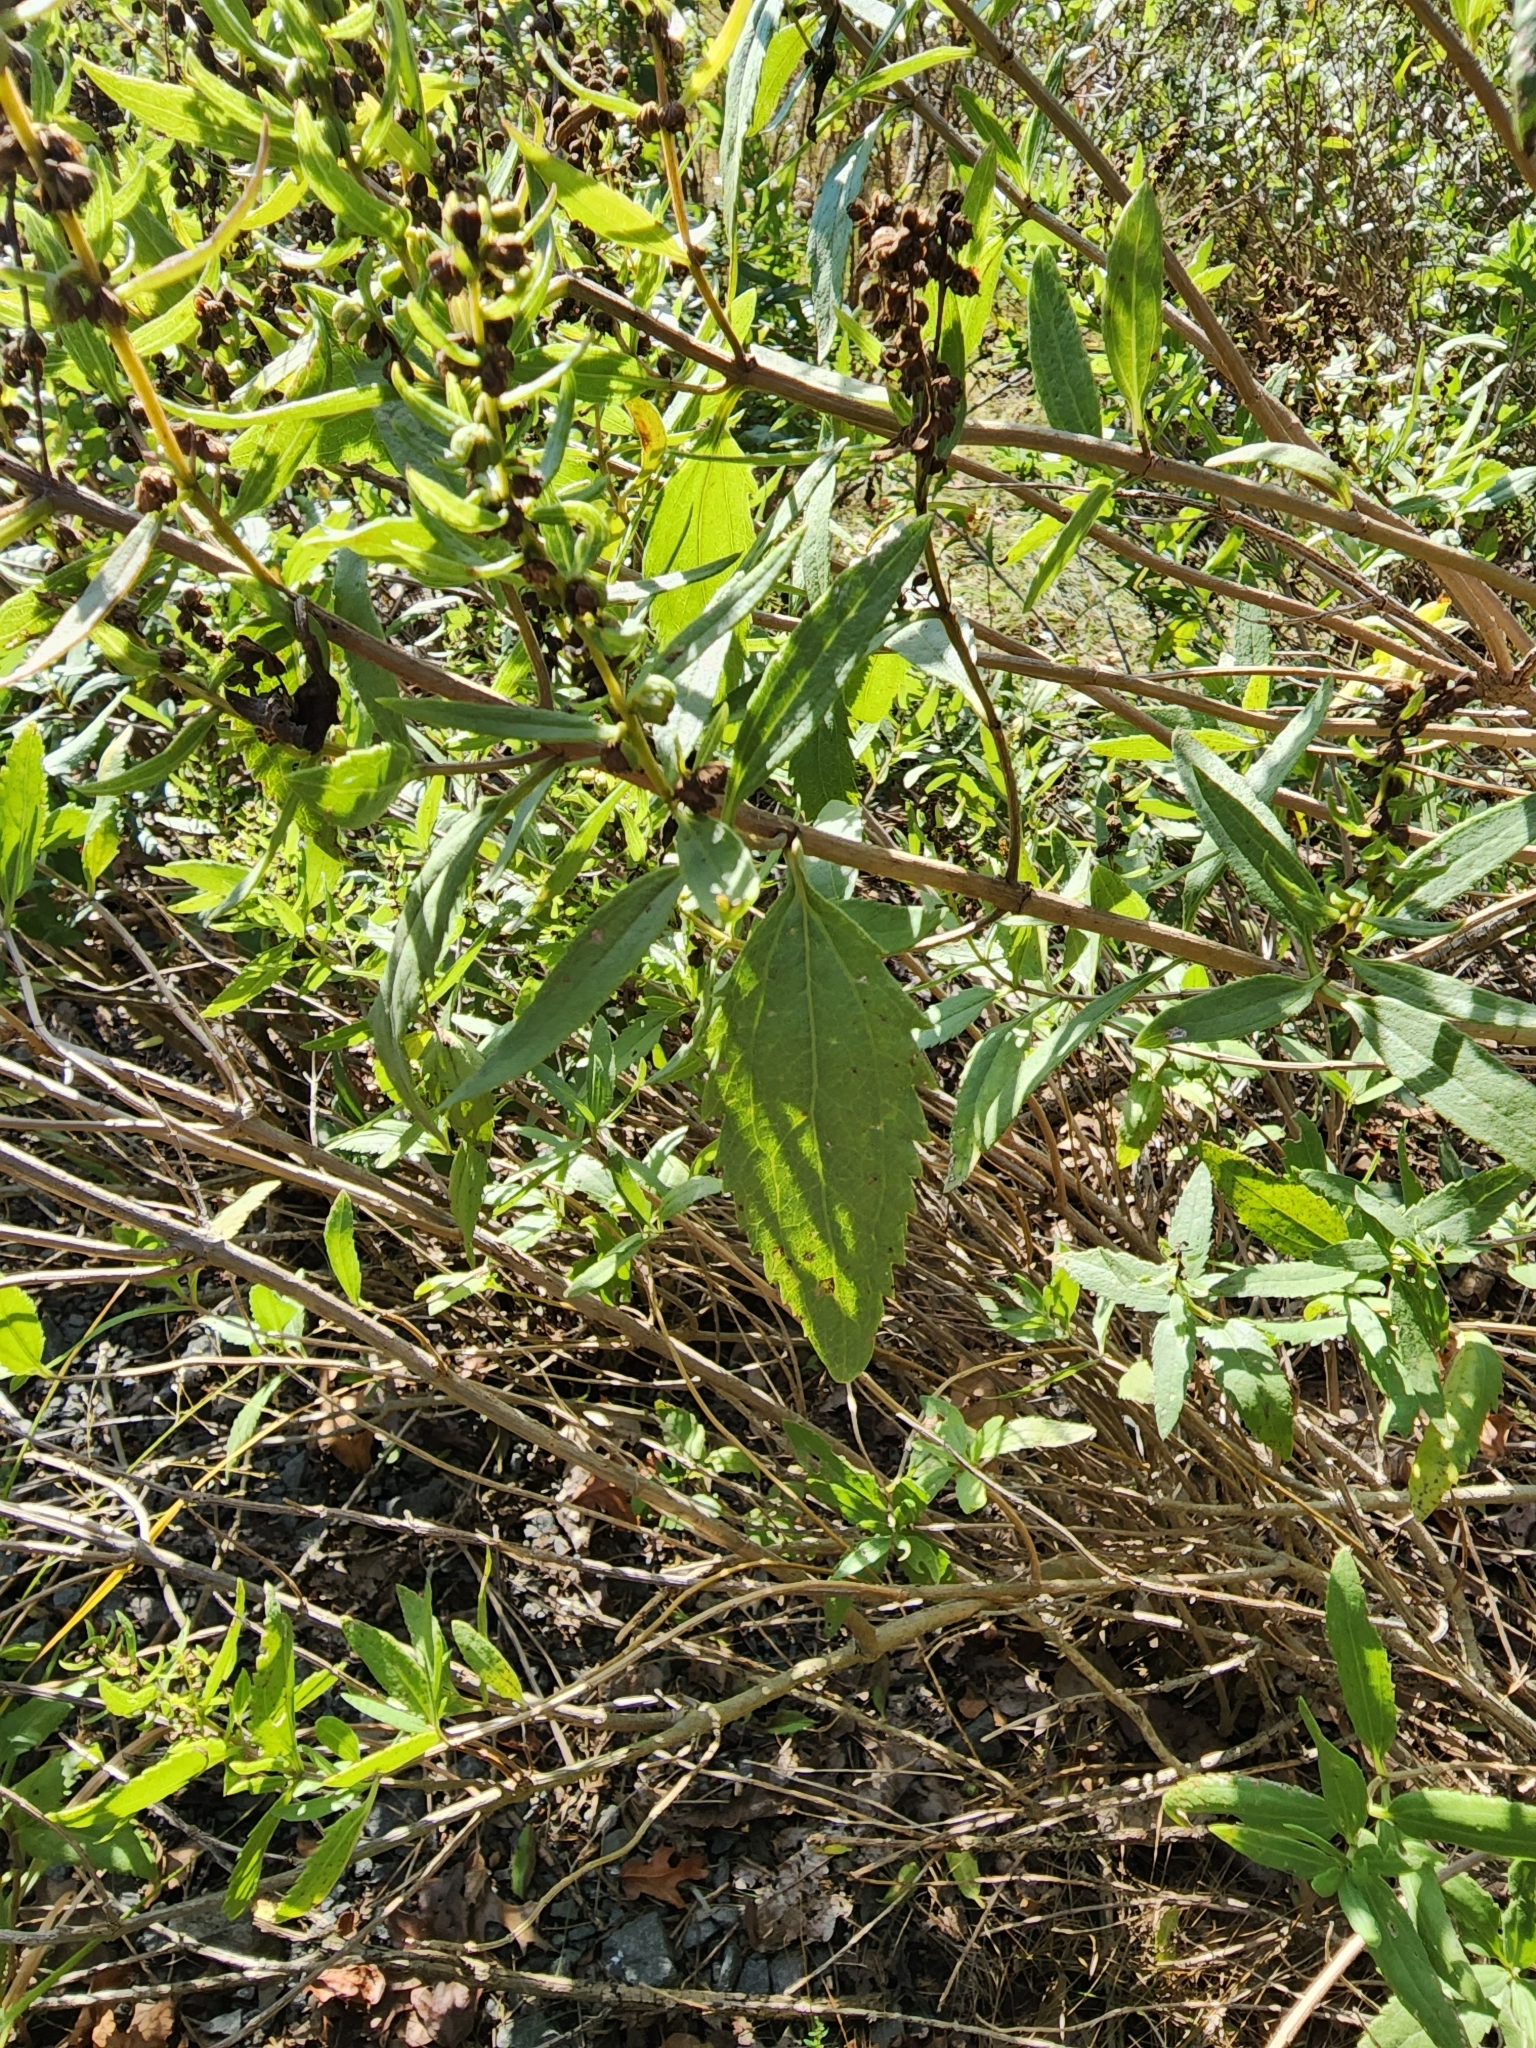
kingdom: Plantae
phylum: Tracheophyta
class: Magnoliopsida
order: Asterales
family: Asteraceae
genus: Iva
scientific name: Iva frutescens
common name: Big-leaved marsh-elder
